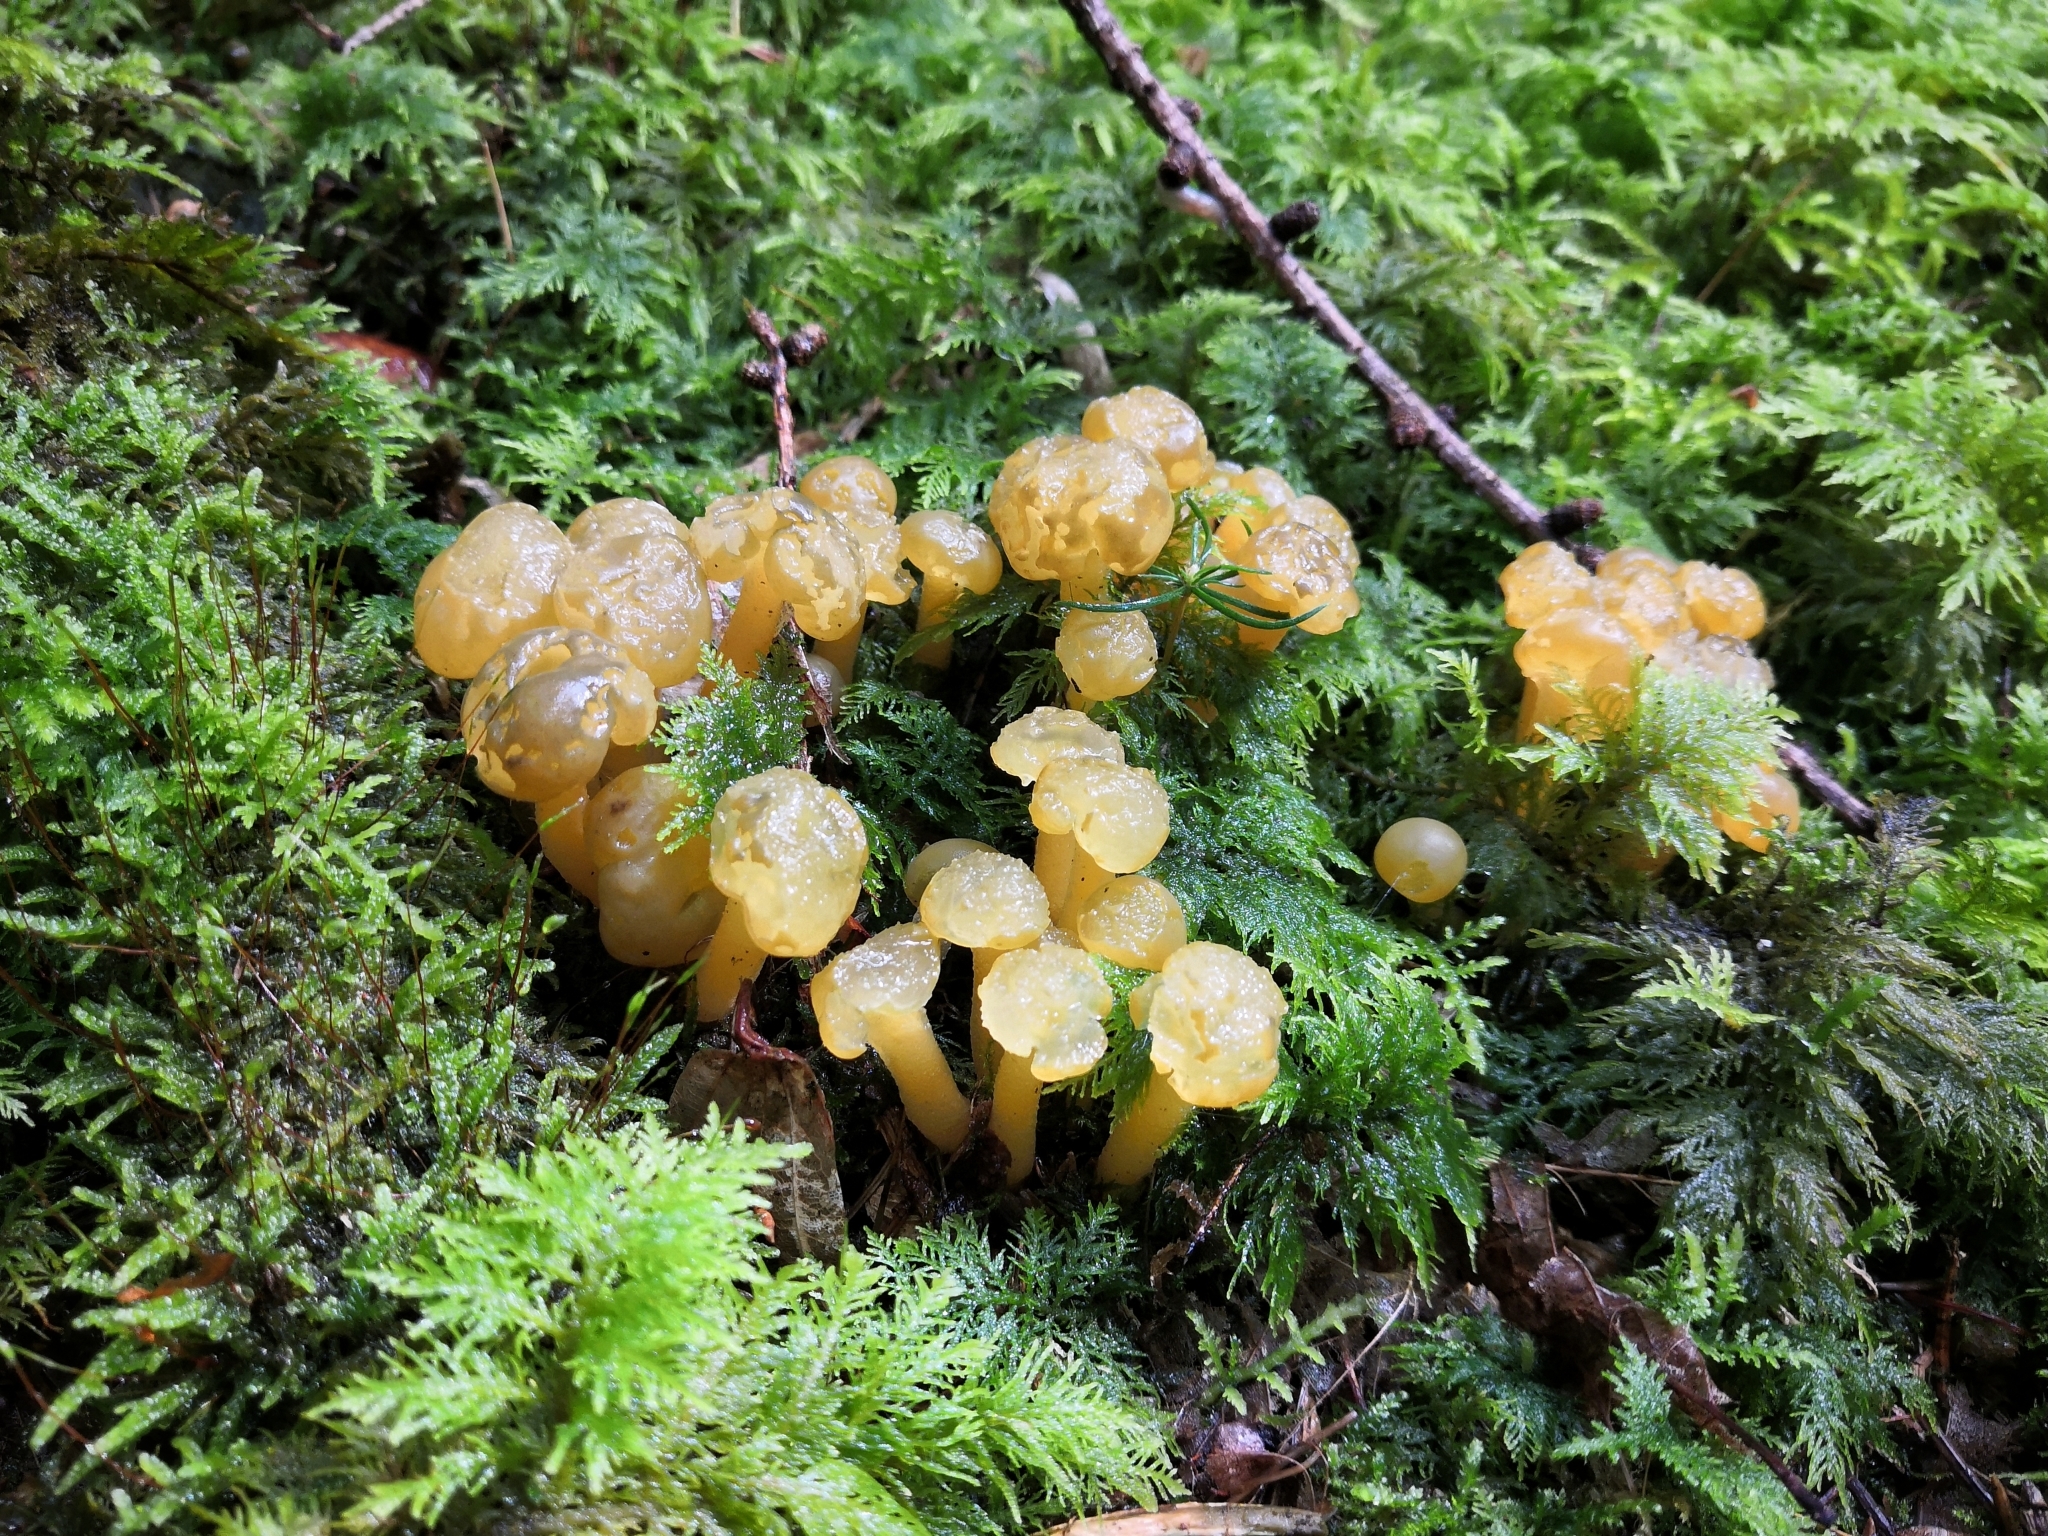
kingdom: Fungi
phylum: Ascomycota
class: Leotiomycetes
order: Leotiales
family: Leotiaceae
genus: Leotia
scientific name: Leotia lubrica
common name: Jellybaby
